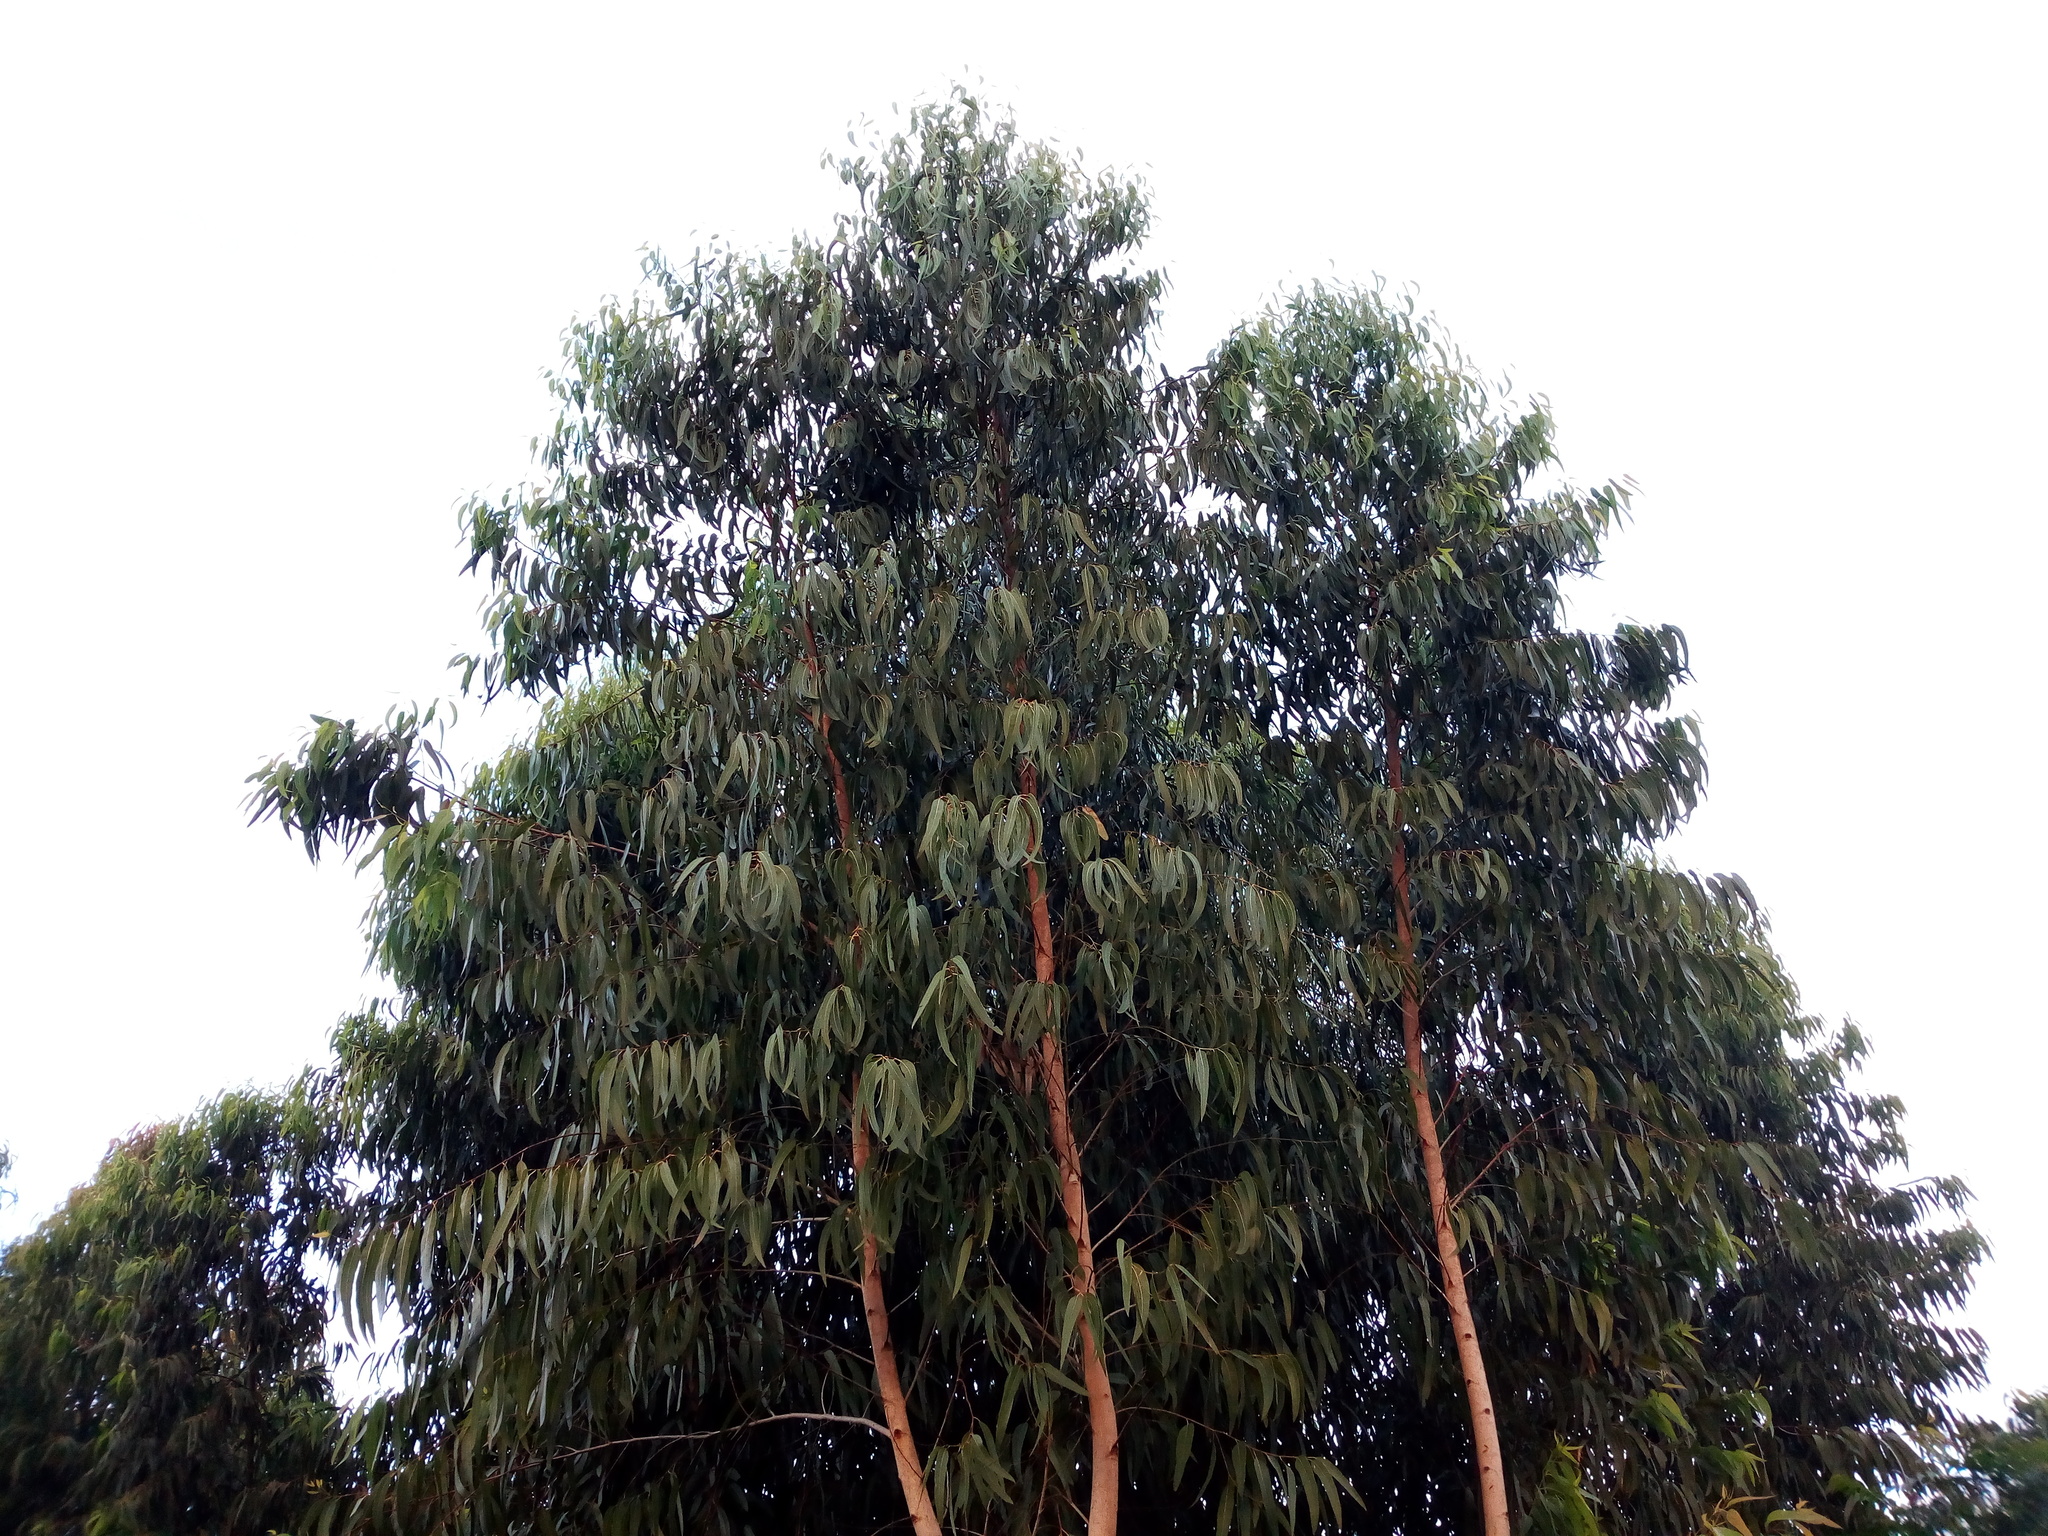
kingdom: Plantae
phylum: Tracheophyta
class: Magnoliopsida
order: Myrtales
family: Myrtaceae
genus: Eucalyptus
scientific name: Eucalyptus camaldulensis
